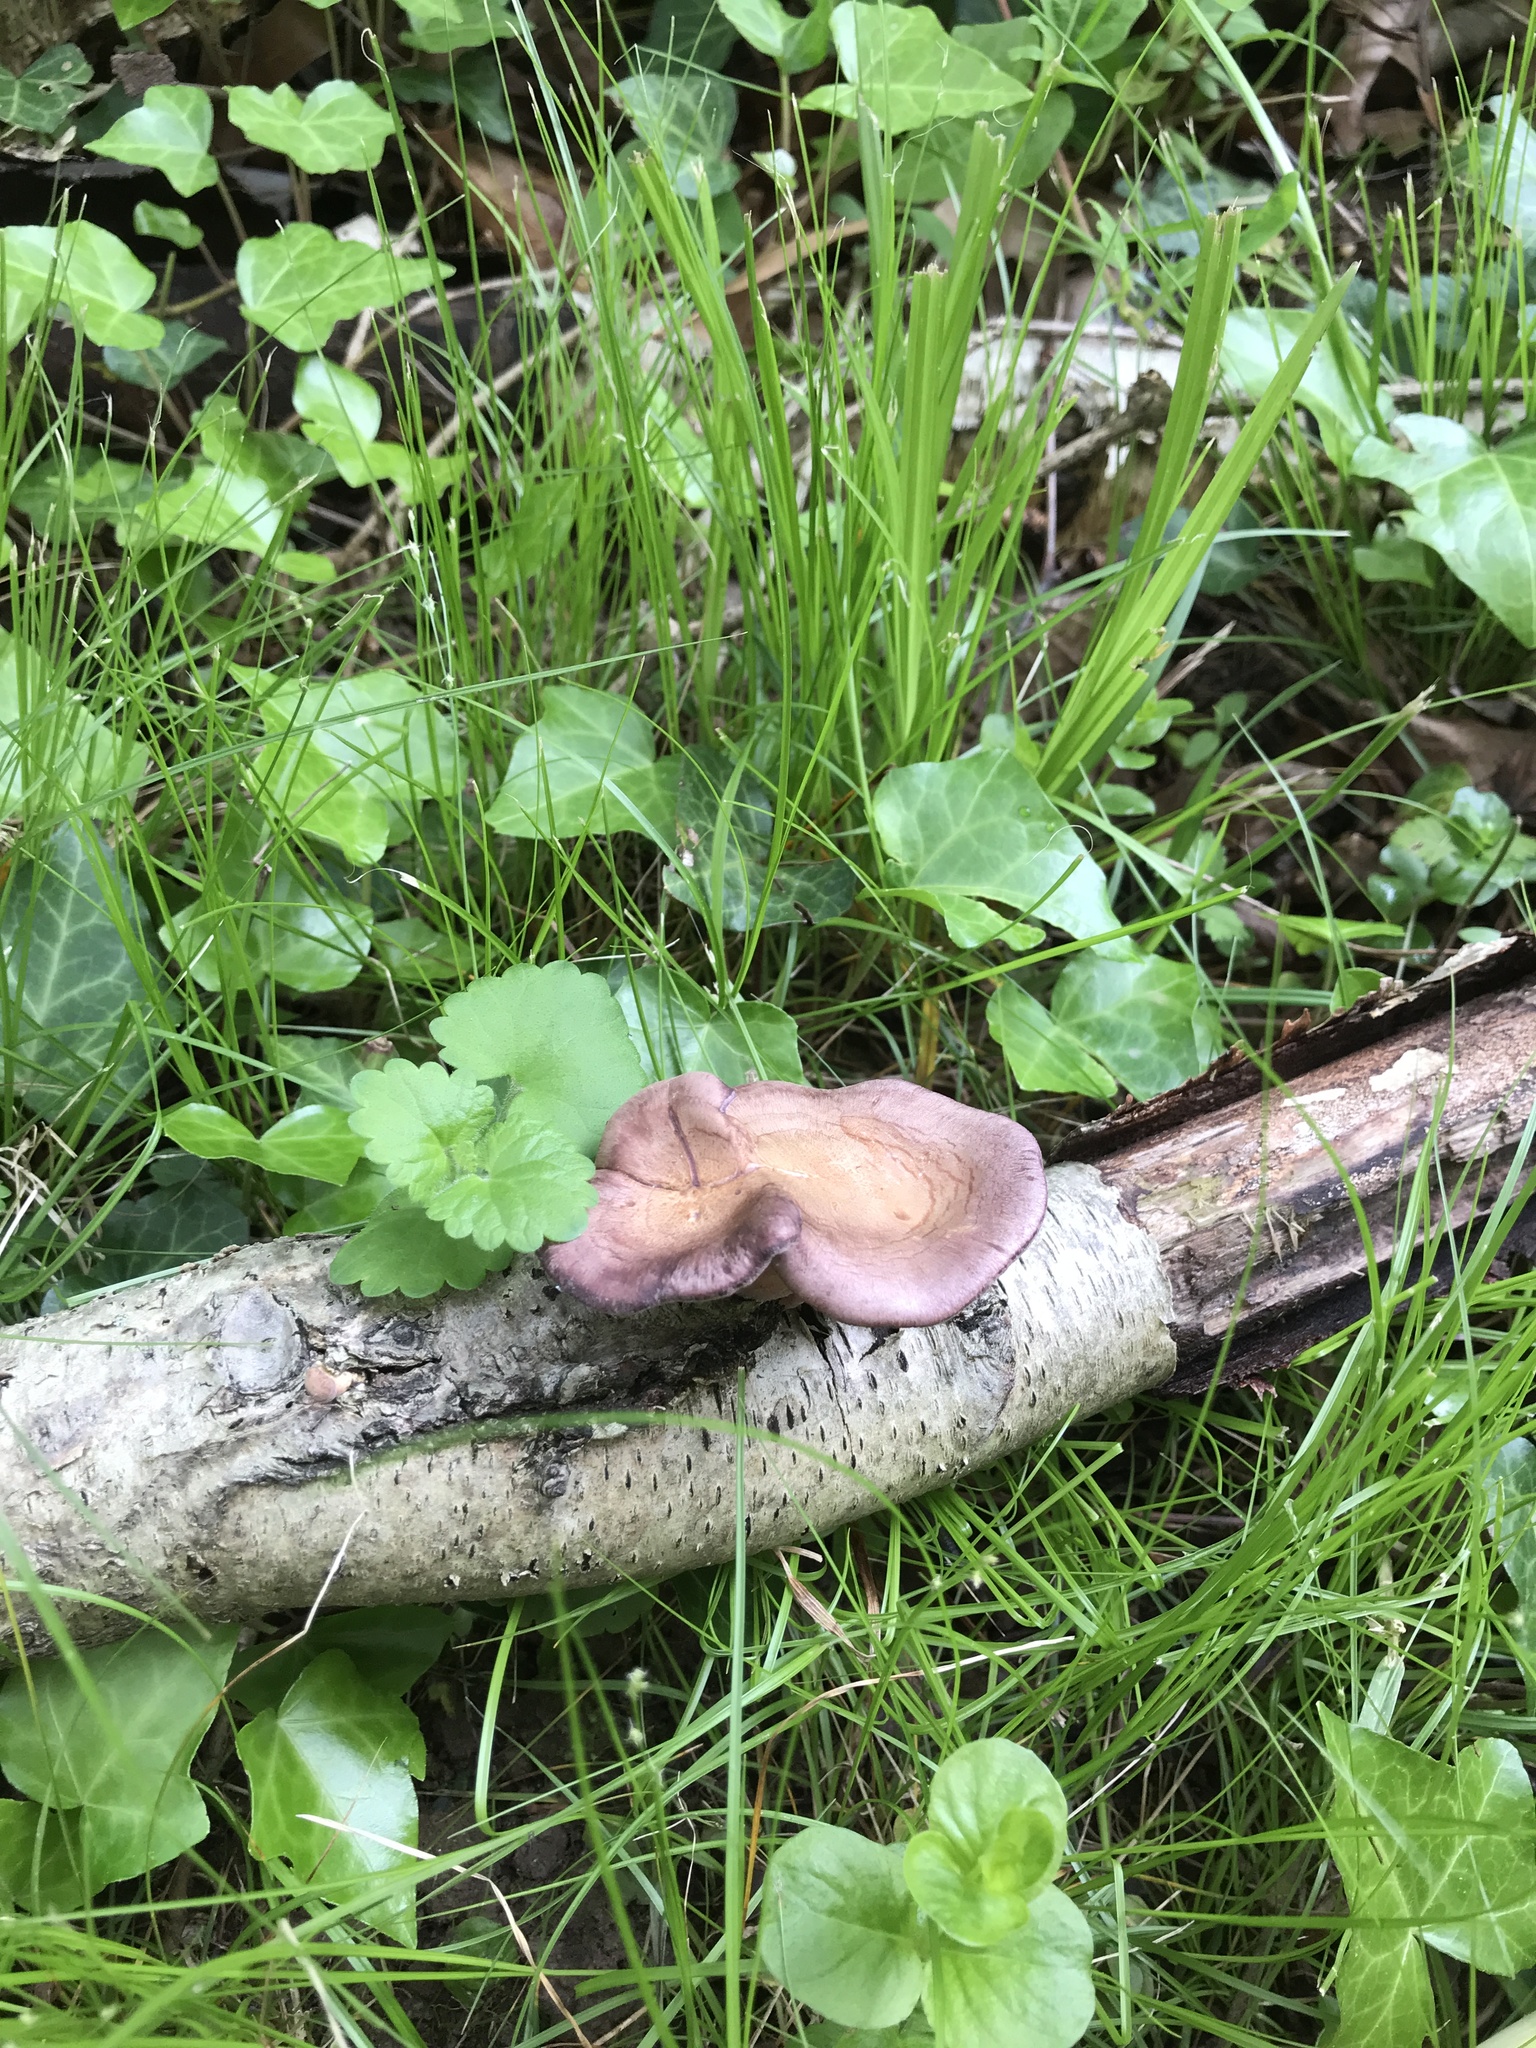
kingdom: Fungi
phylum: Basidiomycota
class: Agaricomycetes
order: Polyporales
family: Panaceae
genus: Panus
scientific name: Panus conchatus
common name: Lilac oysterling
